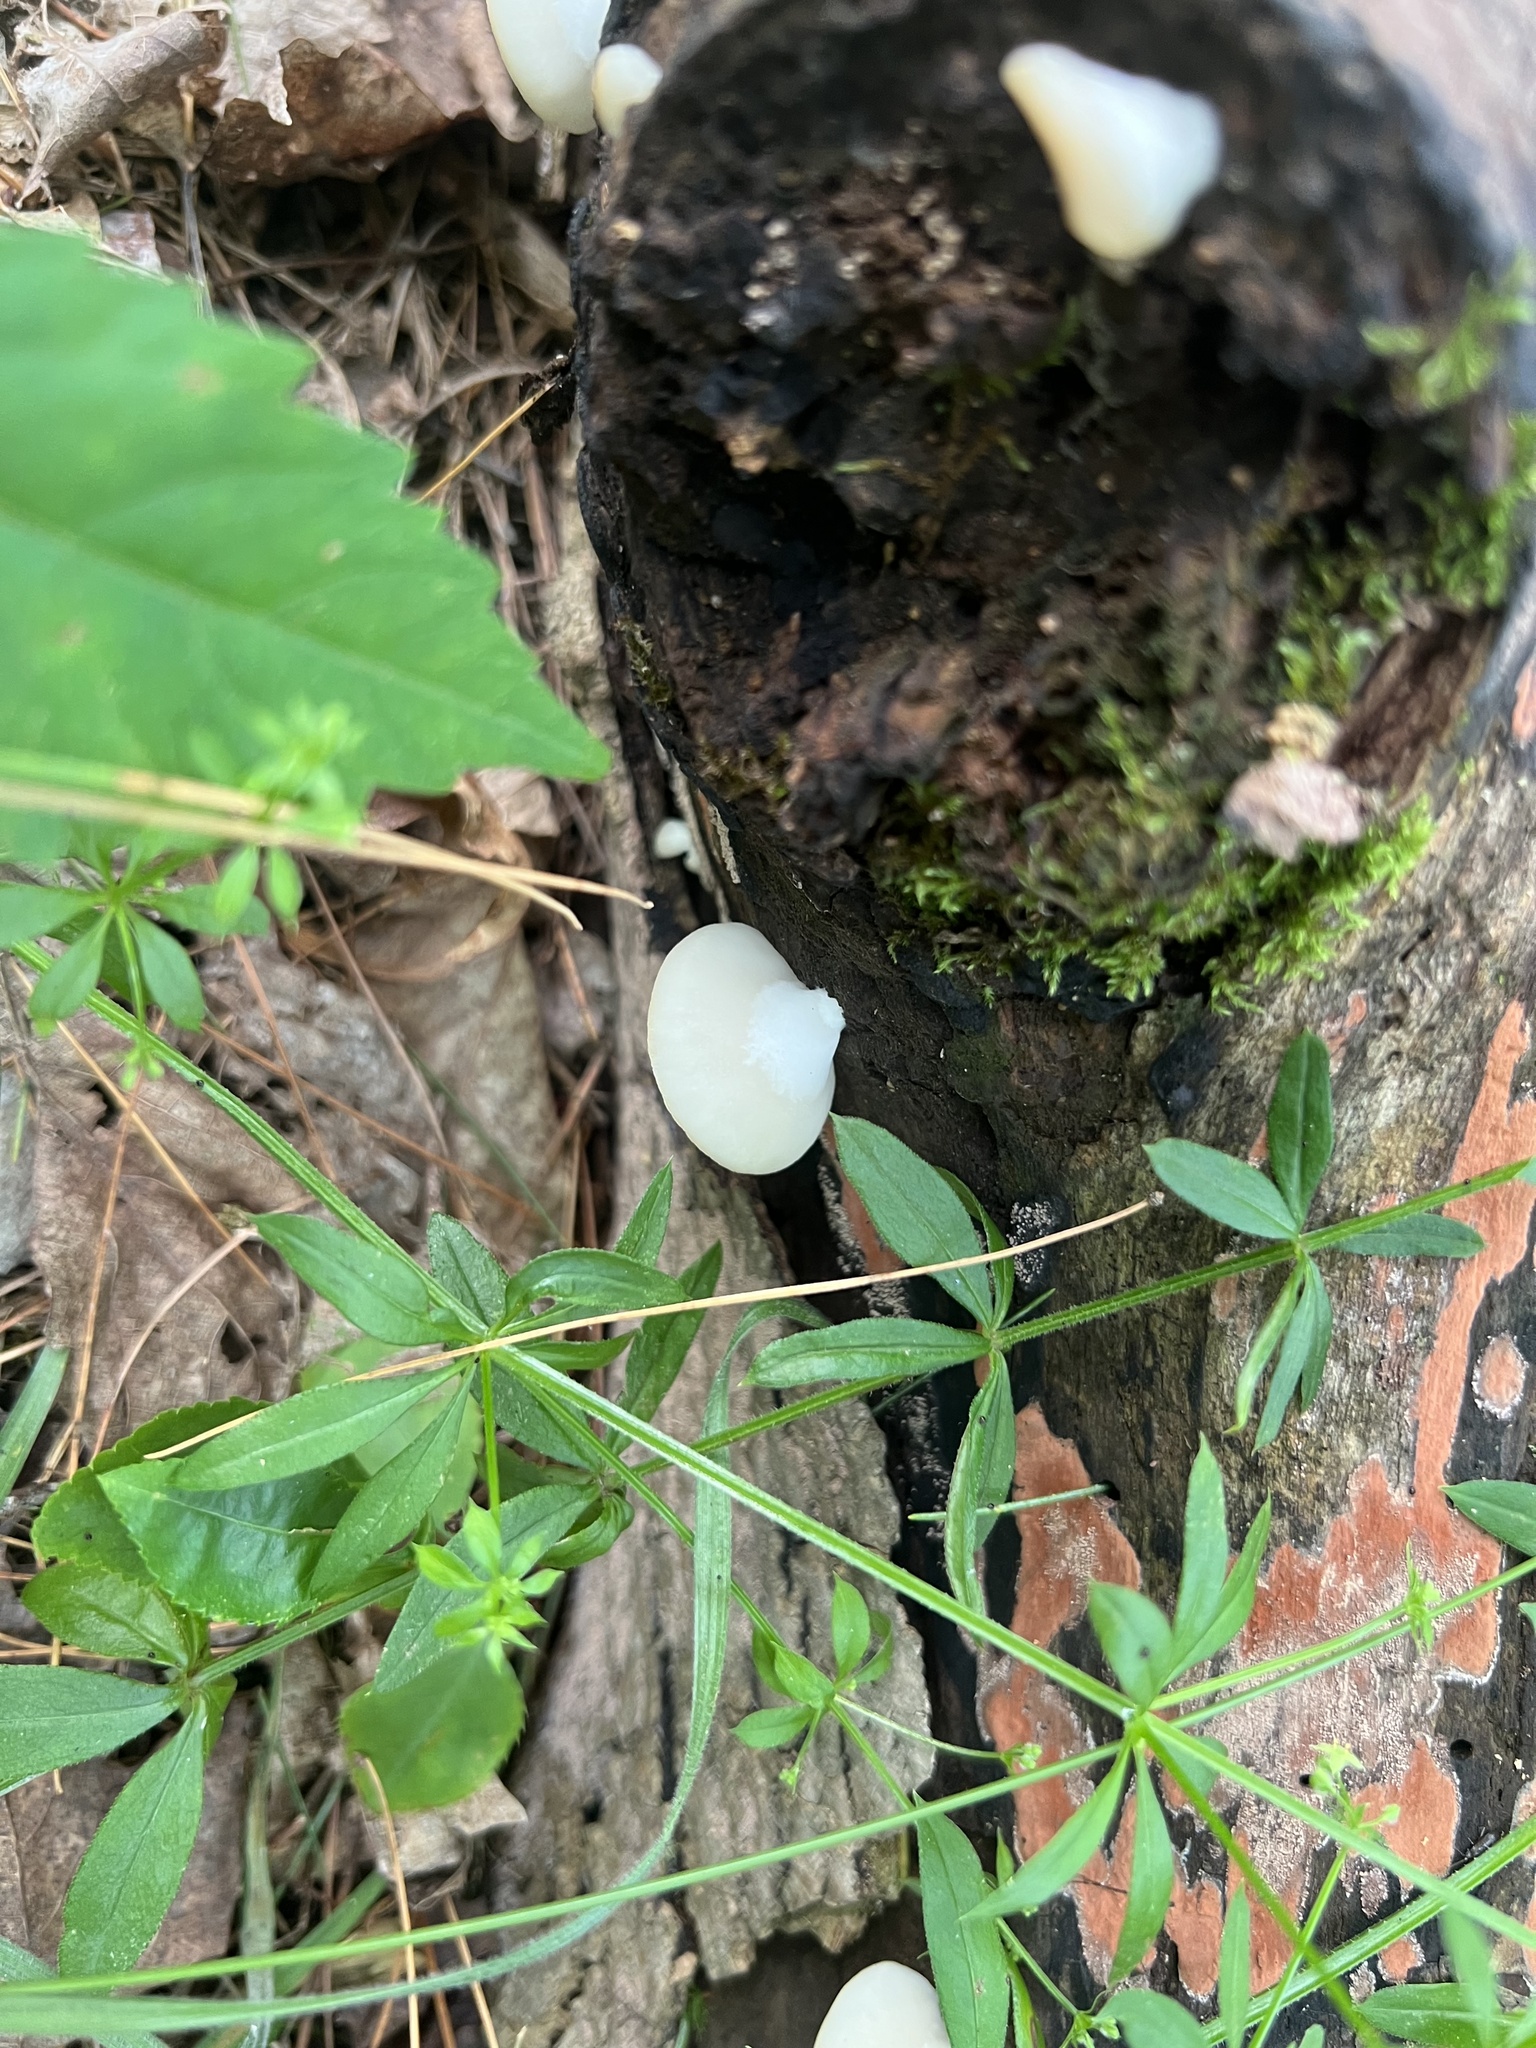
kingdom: Fungi
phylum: Basidiomycota
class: Agaricomycetes
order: Agaricales
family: Crepidotaceae
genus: Crepidotus
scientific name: Crepidotus applanatus
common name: Flat crep
